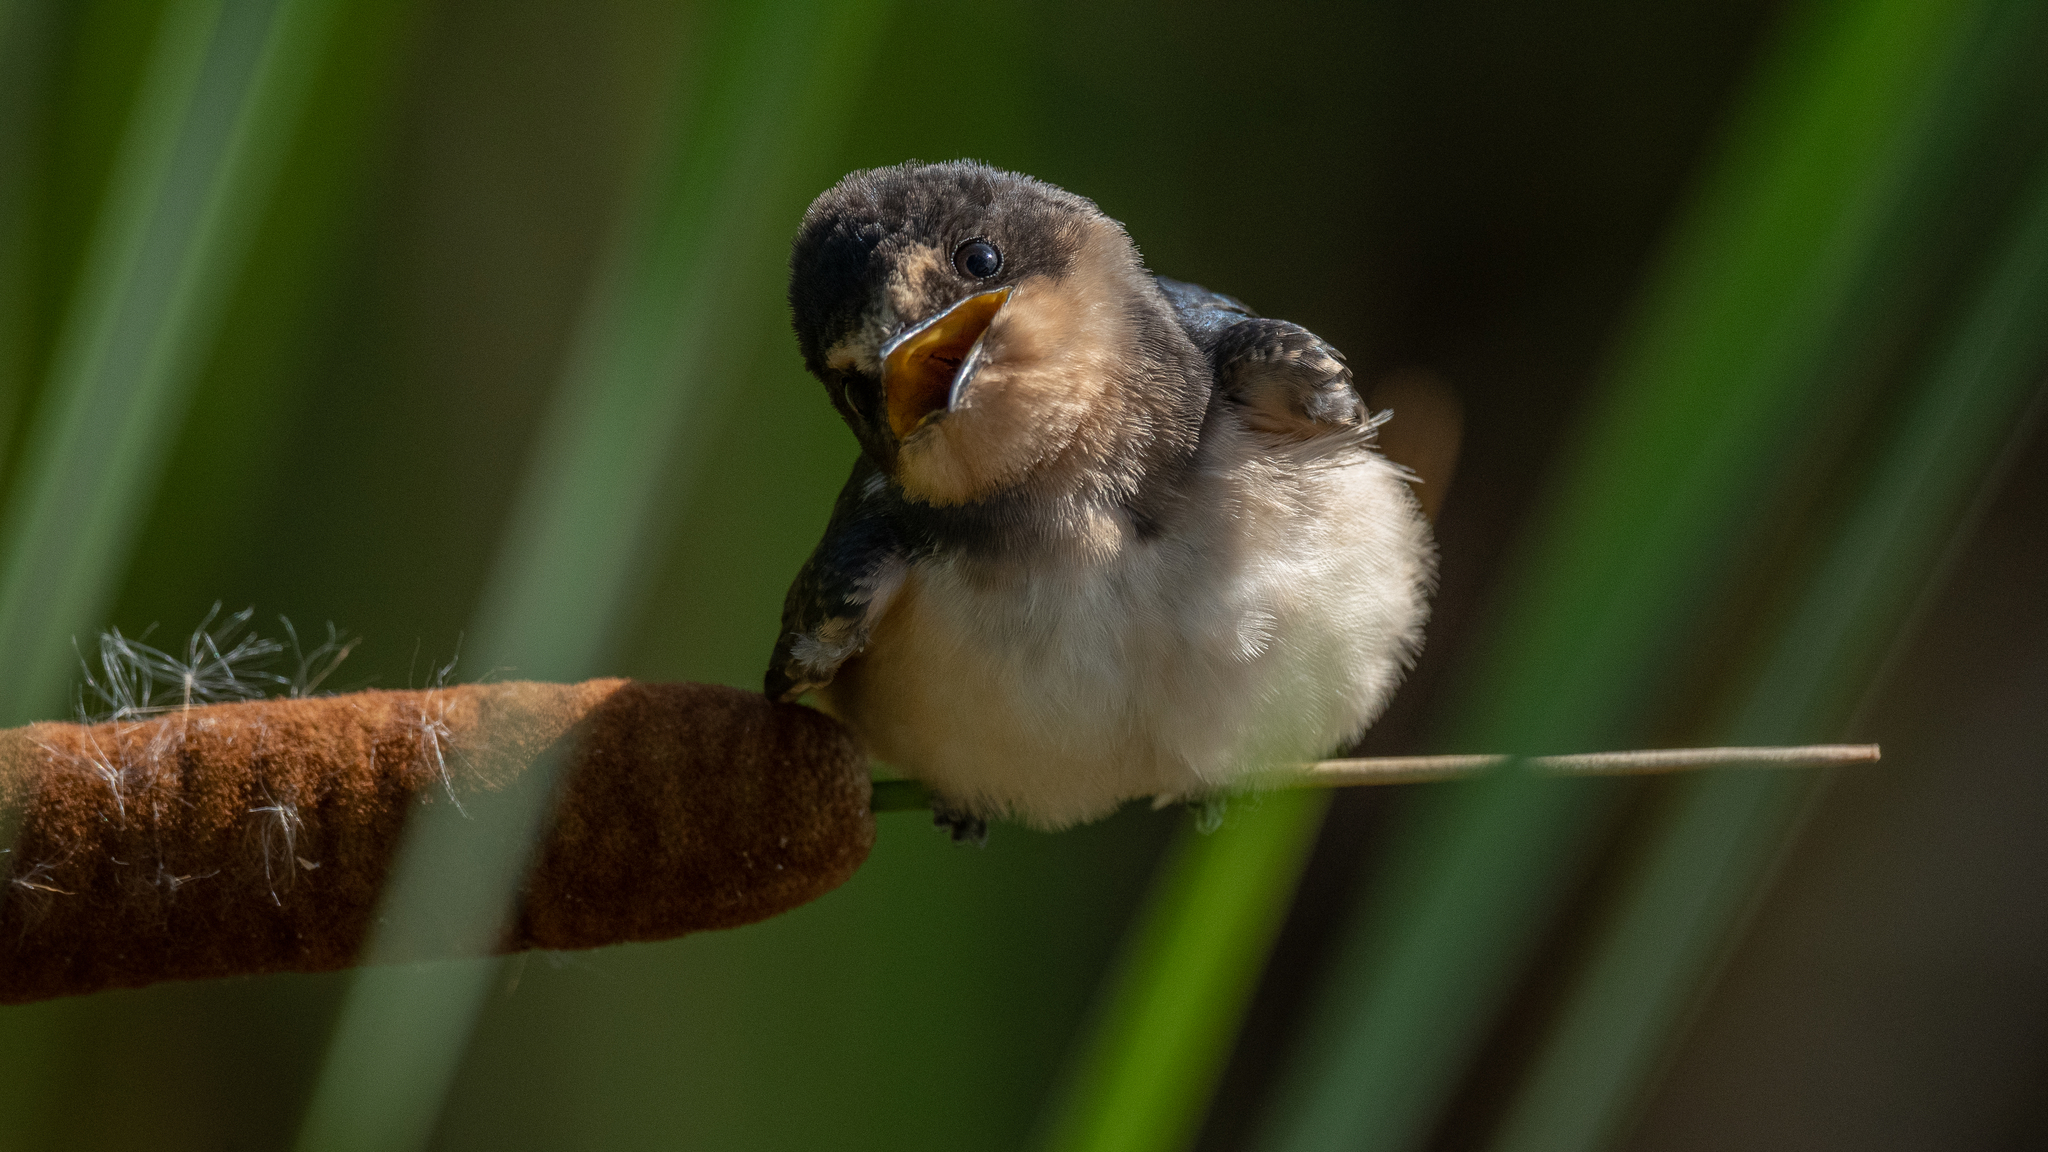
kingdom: Animalia
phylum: Chordata
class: Aves
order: Passeriformes
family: Hirundinidae
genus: Hirundo
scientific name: Hirundo rustica
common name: Barn swallow
